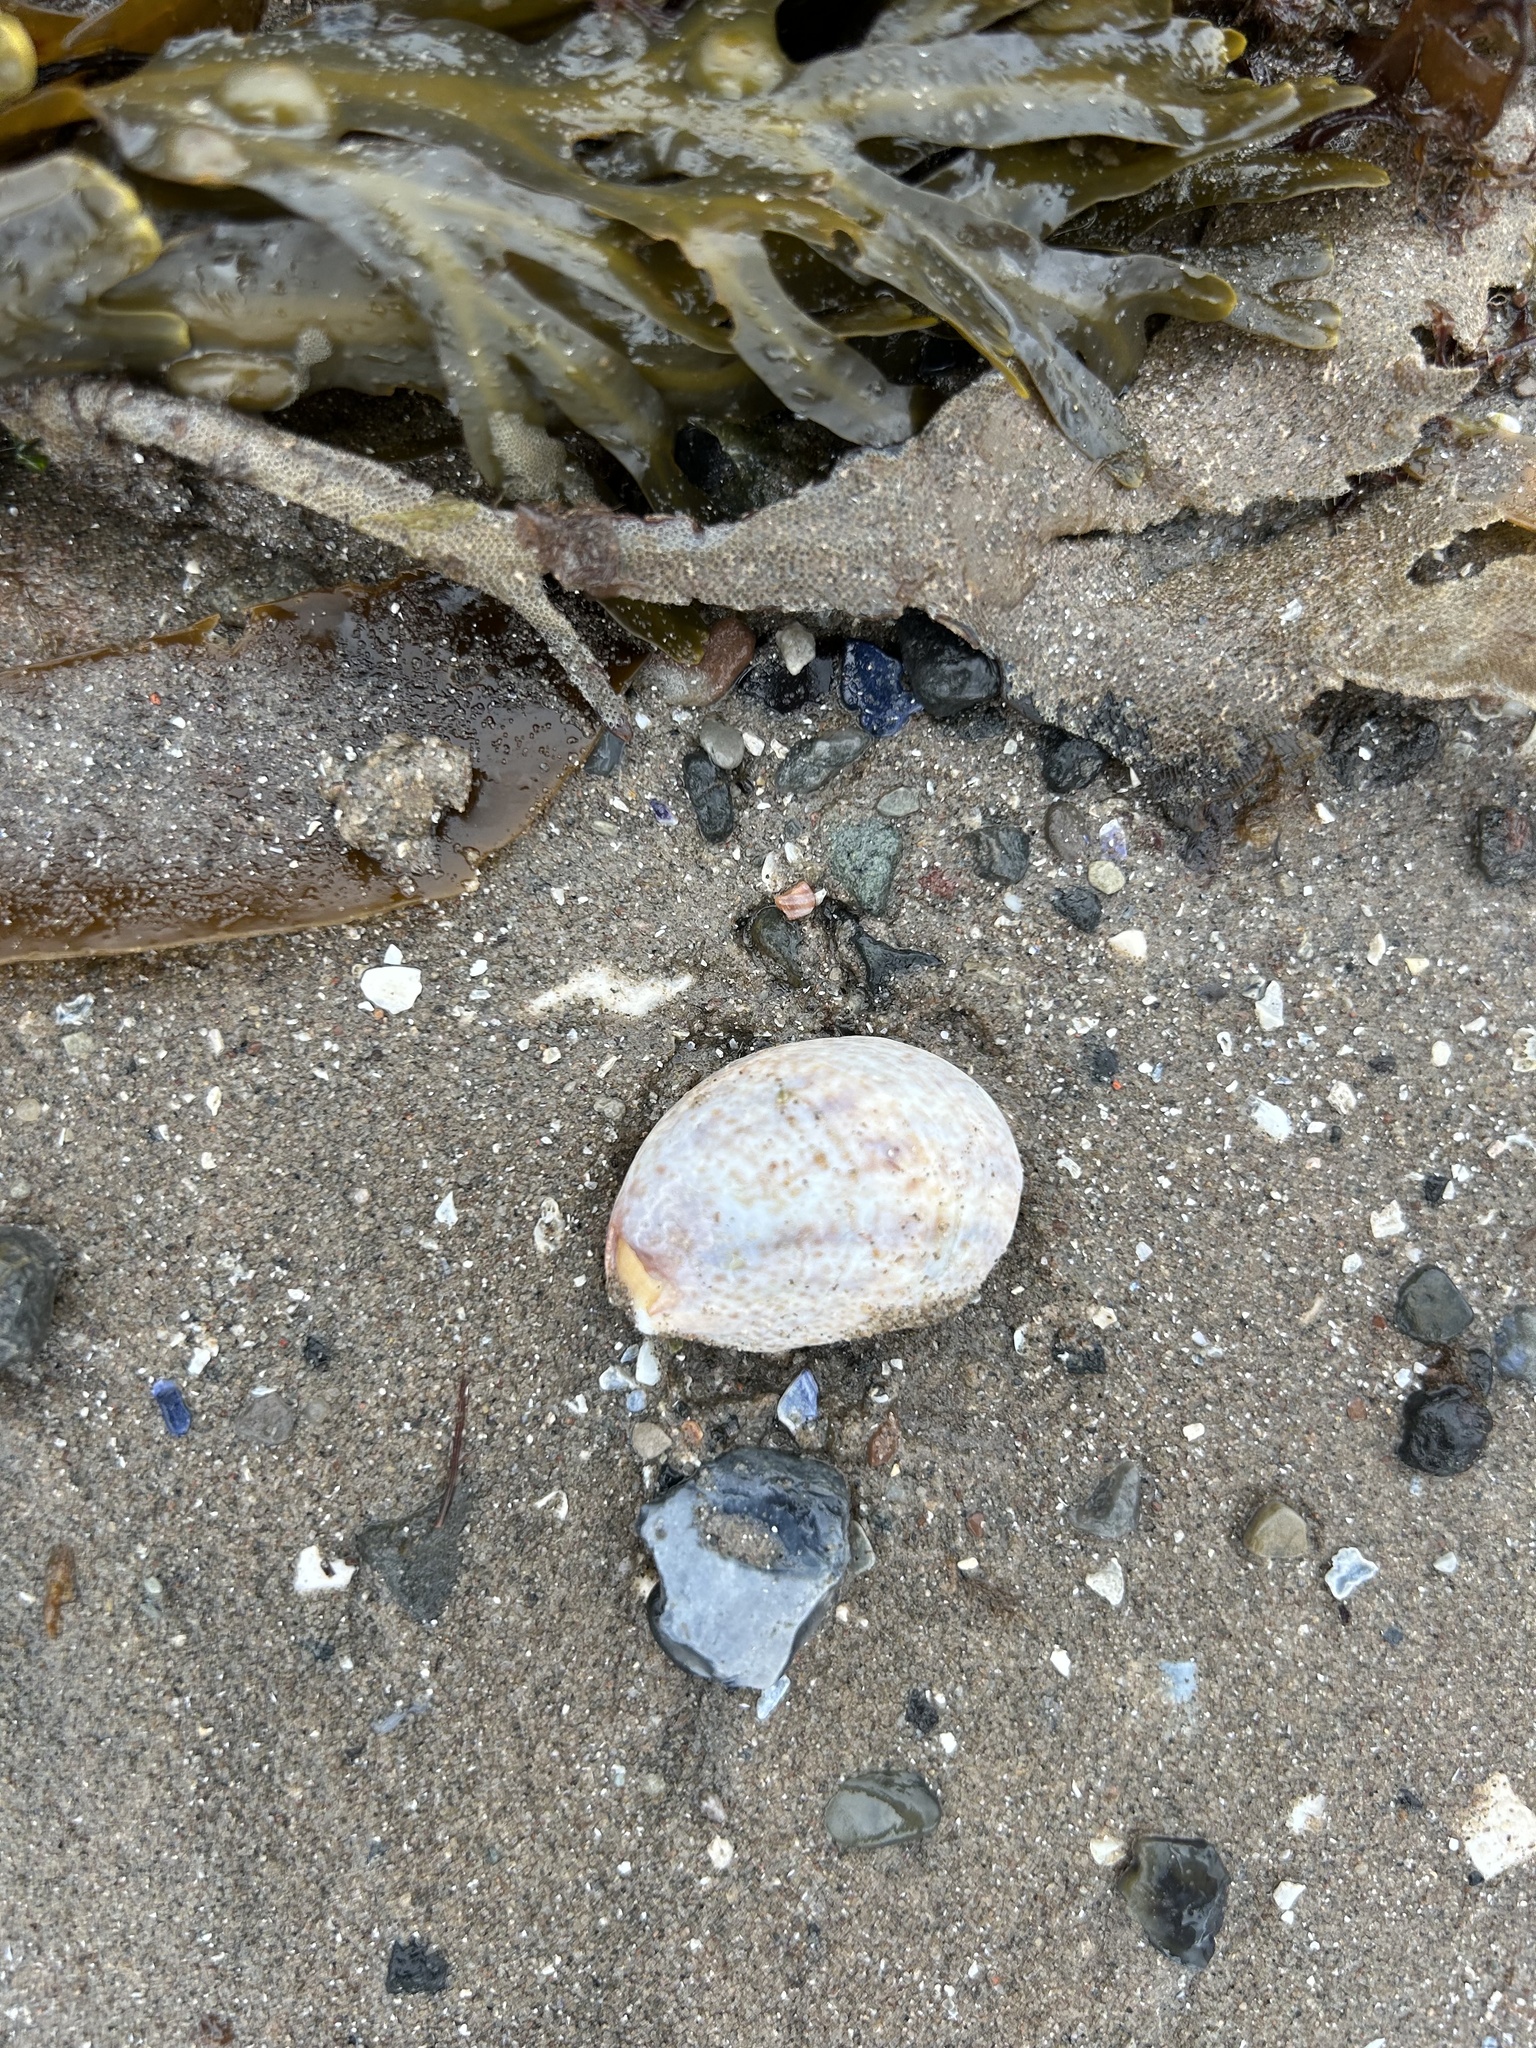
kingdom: Animalia
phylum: Mollusca
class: Gastropoda
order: Littorinimorpha
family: Calyptraeidae
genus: Crepidula
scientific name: Crepidula fornicata
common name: Slipper limpet
